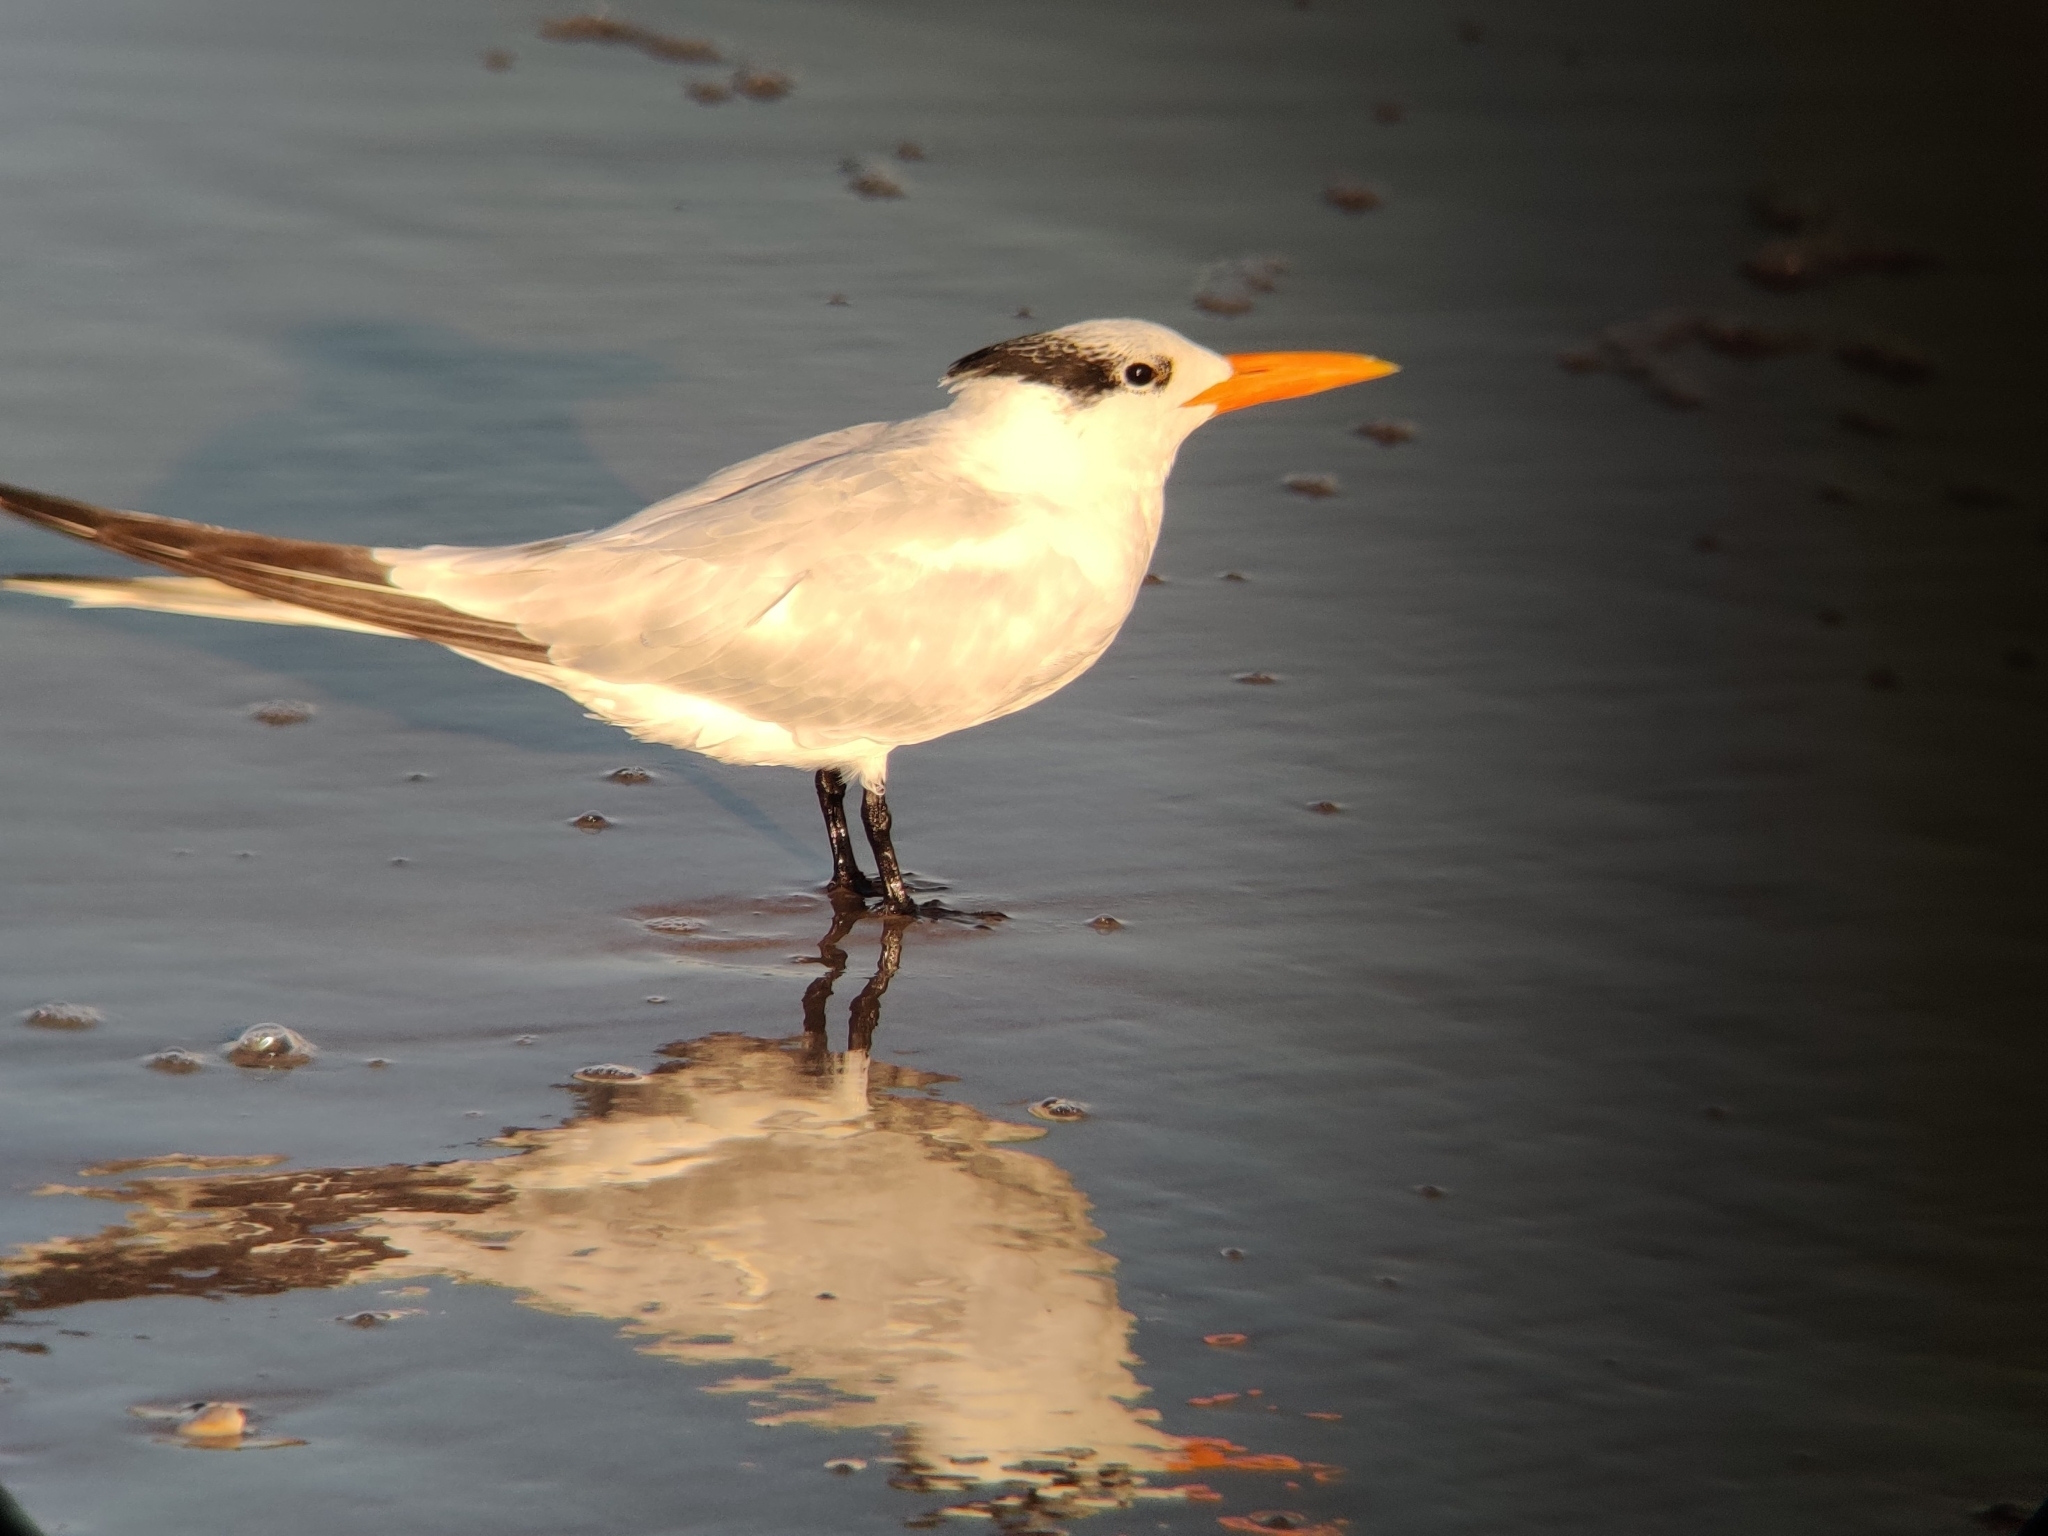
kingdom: Animalia
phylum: Chordata
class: Aves
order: Charadriiformes
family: Laridae
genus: Thalasseus
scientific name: Thalasseus maximus
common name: Royal tern
